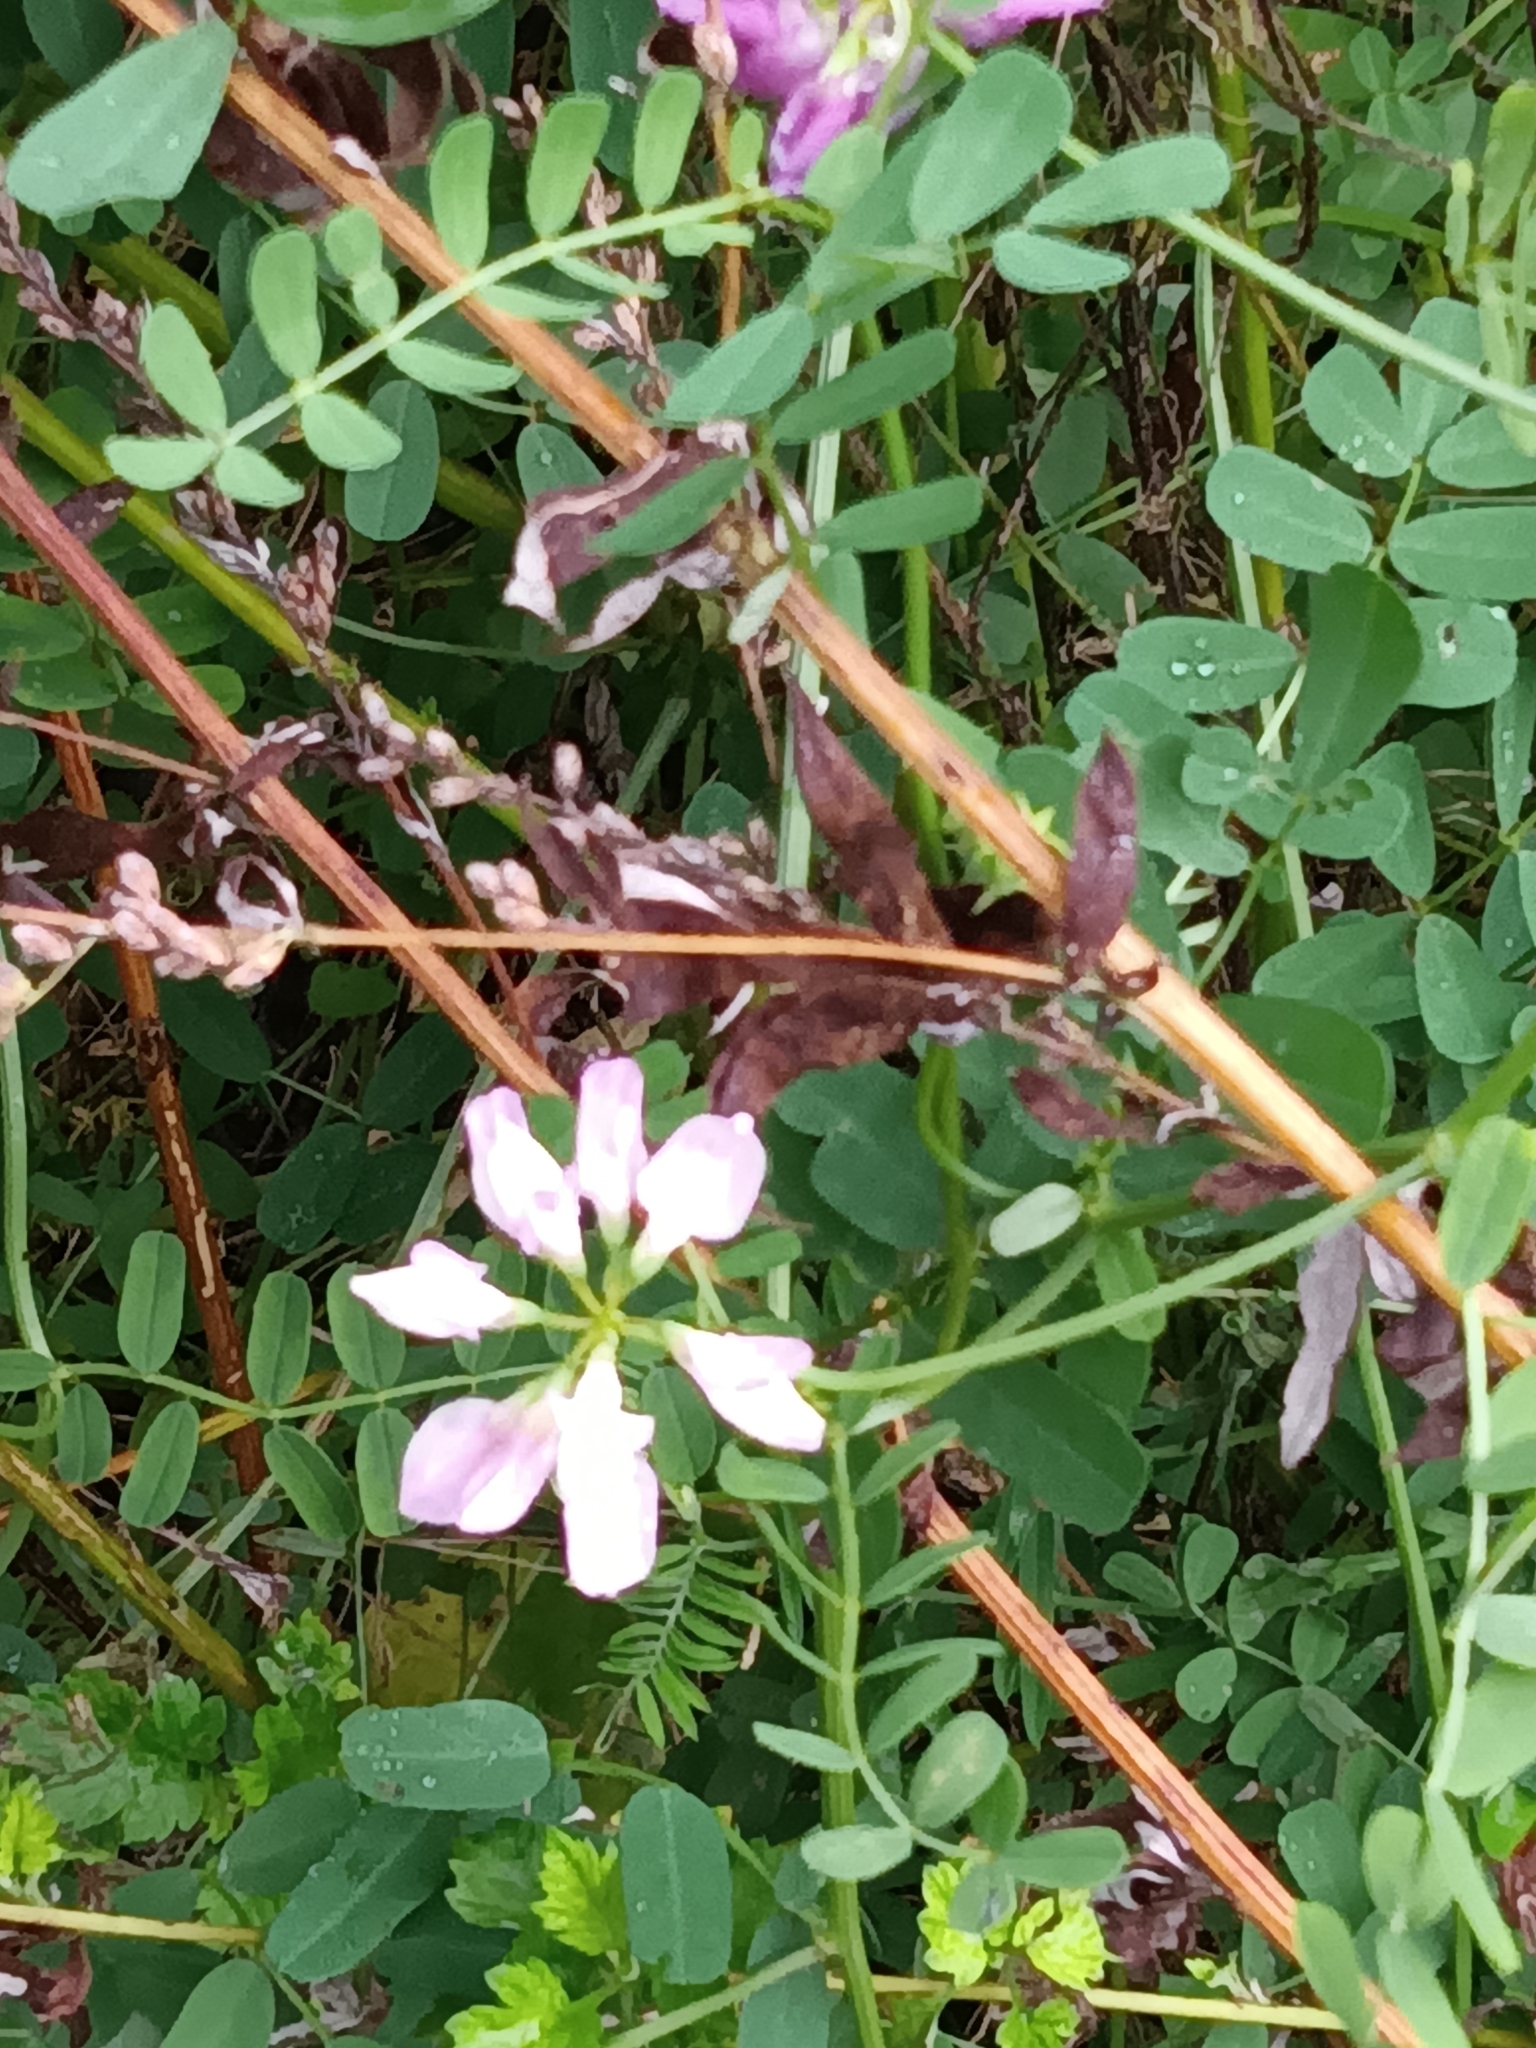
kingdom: Plantae
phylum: Tracheophyta
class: Magnoliopsida
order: Fabales
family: Fabaceae
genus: Coronilla
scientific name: Coronilla varia
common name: Crownvetch
